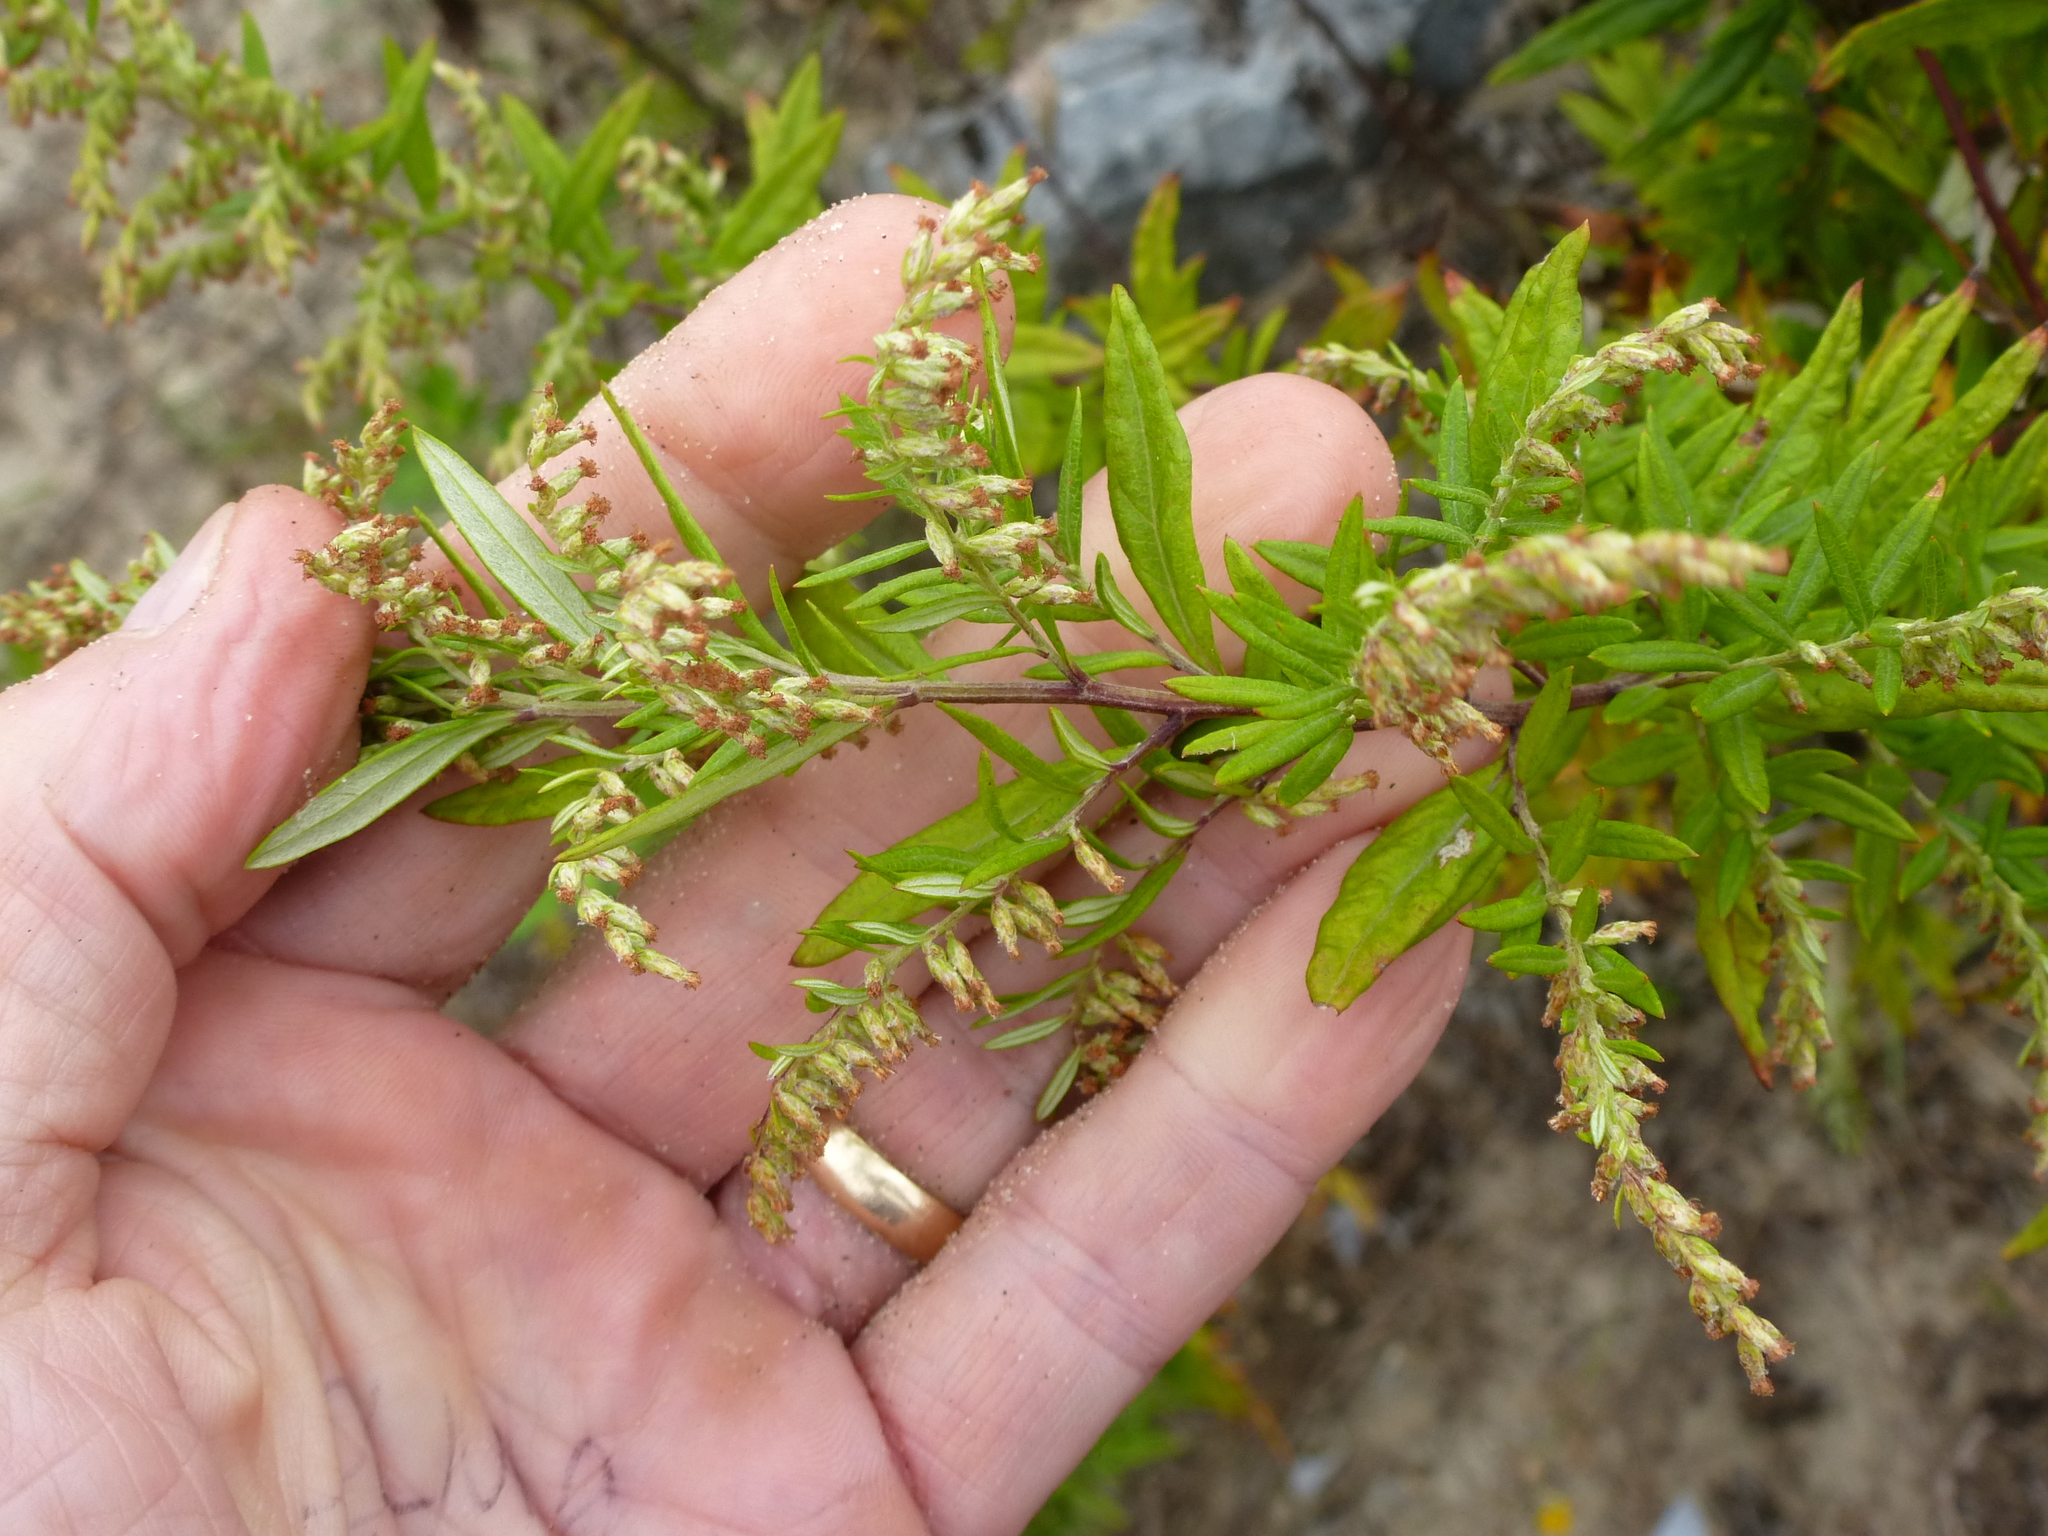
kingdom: Plantae
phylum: Tracheophyta
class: Magnoliopsida
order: Asterales
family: Asteraceae
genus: Artemisia
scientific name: Artemisia vulgaris
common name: Mugwort
